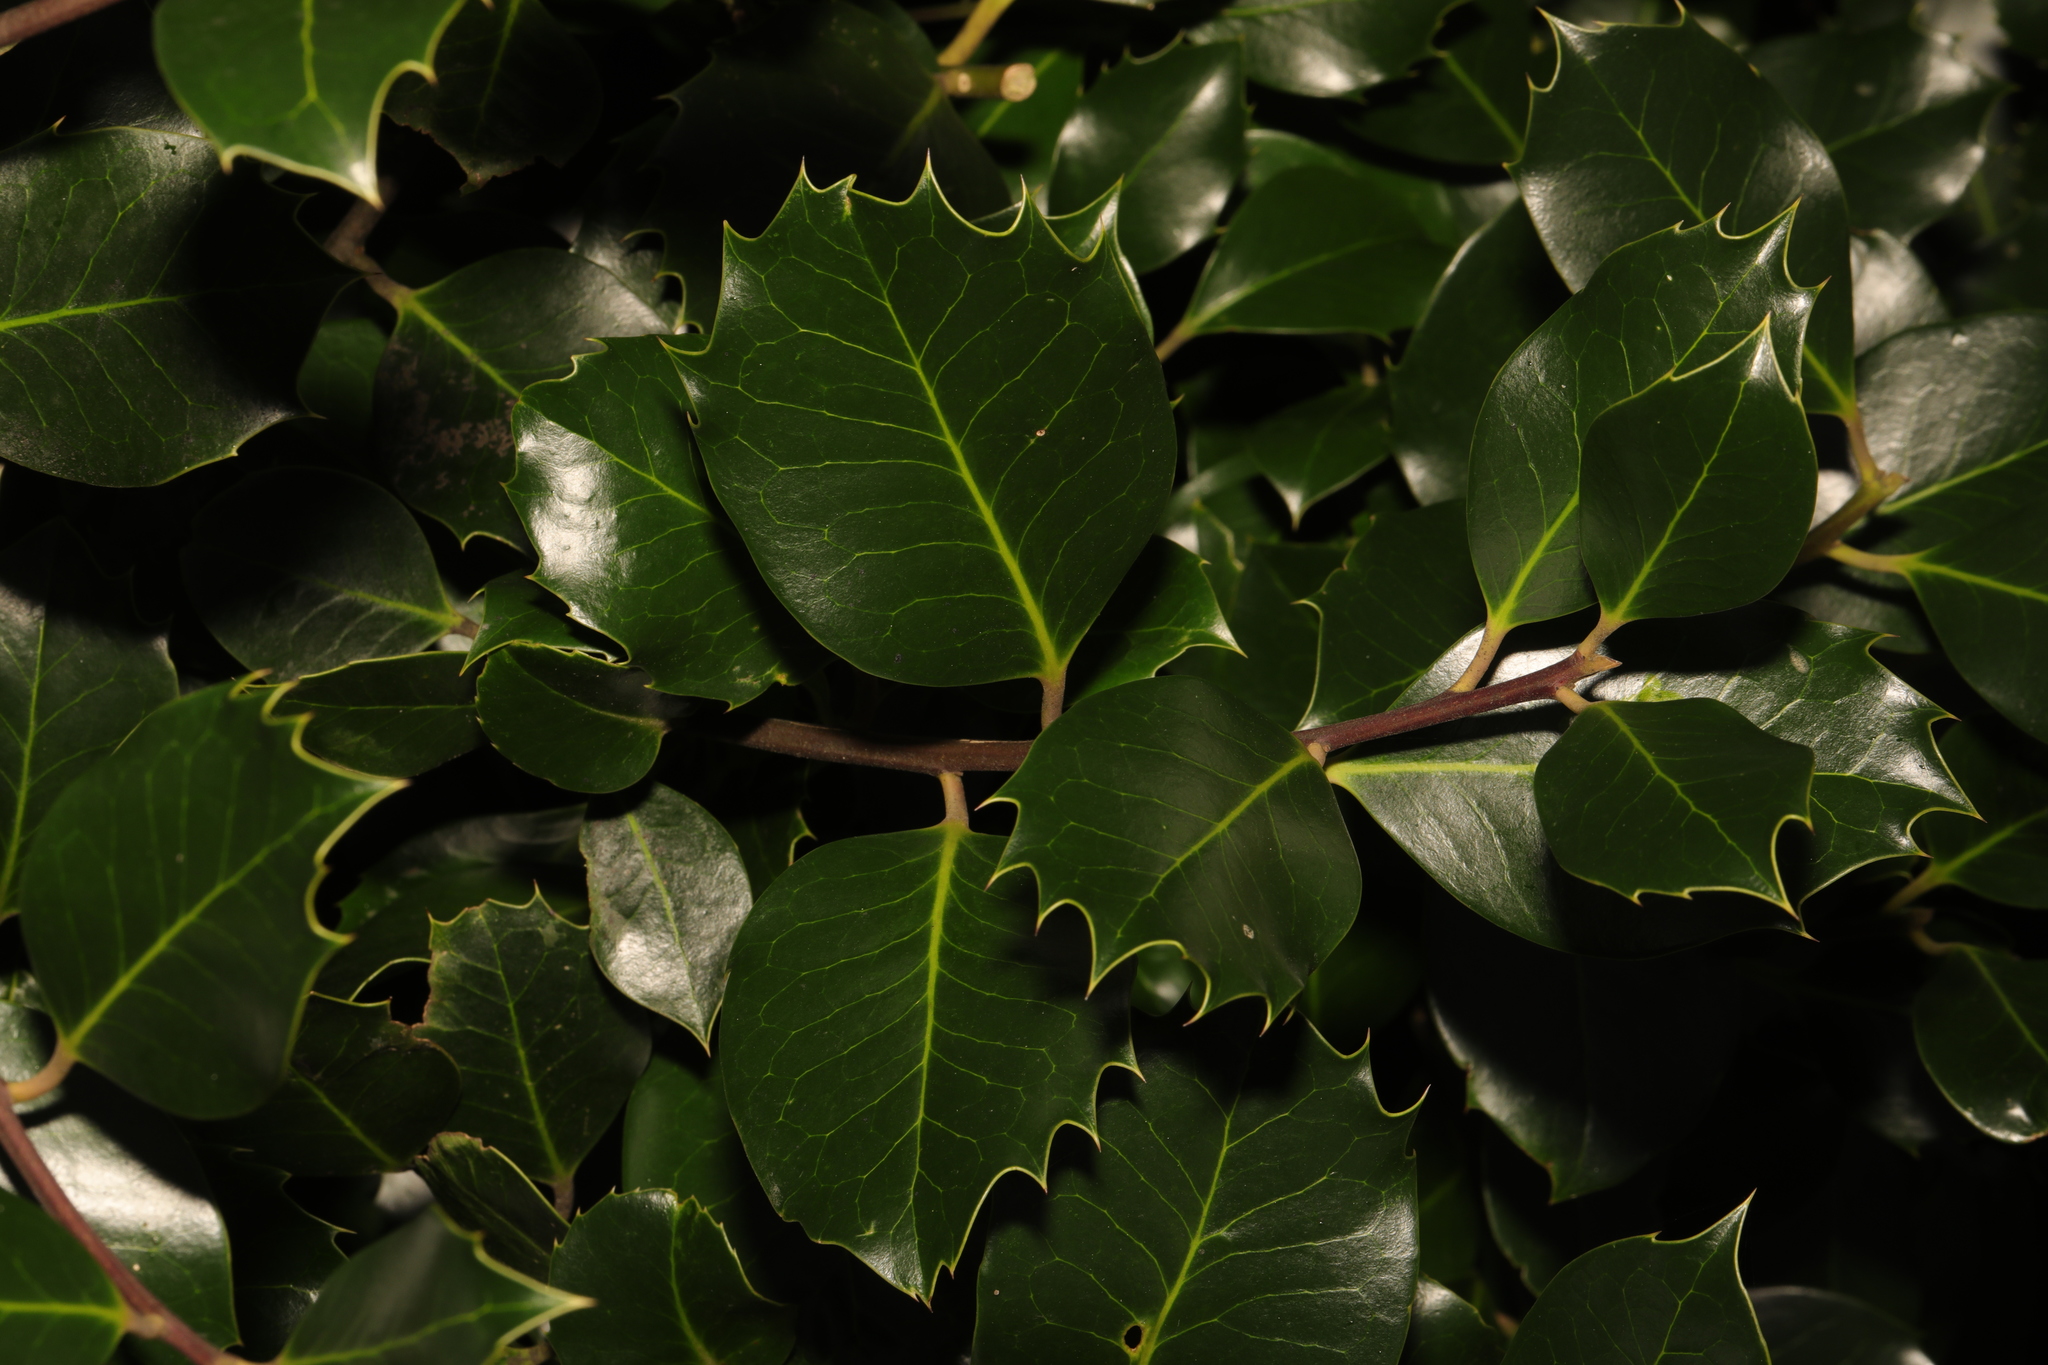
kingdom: Plantae
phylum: Tracheophyta
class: Magnoliopsida
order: Aquifoliales
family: Aquifoliaceae
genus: Ilex
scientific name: Ilex aquifolium
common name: English holly
